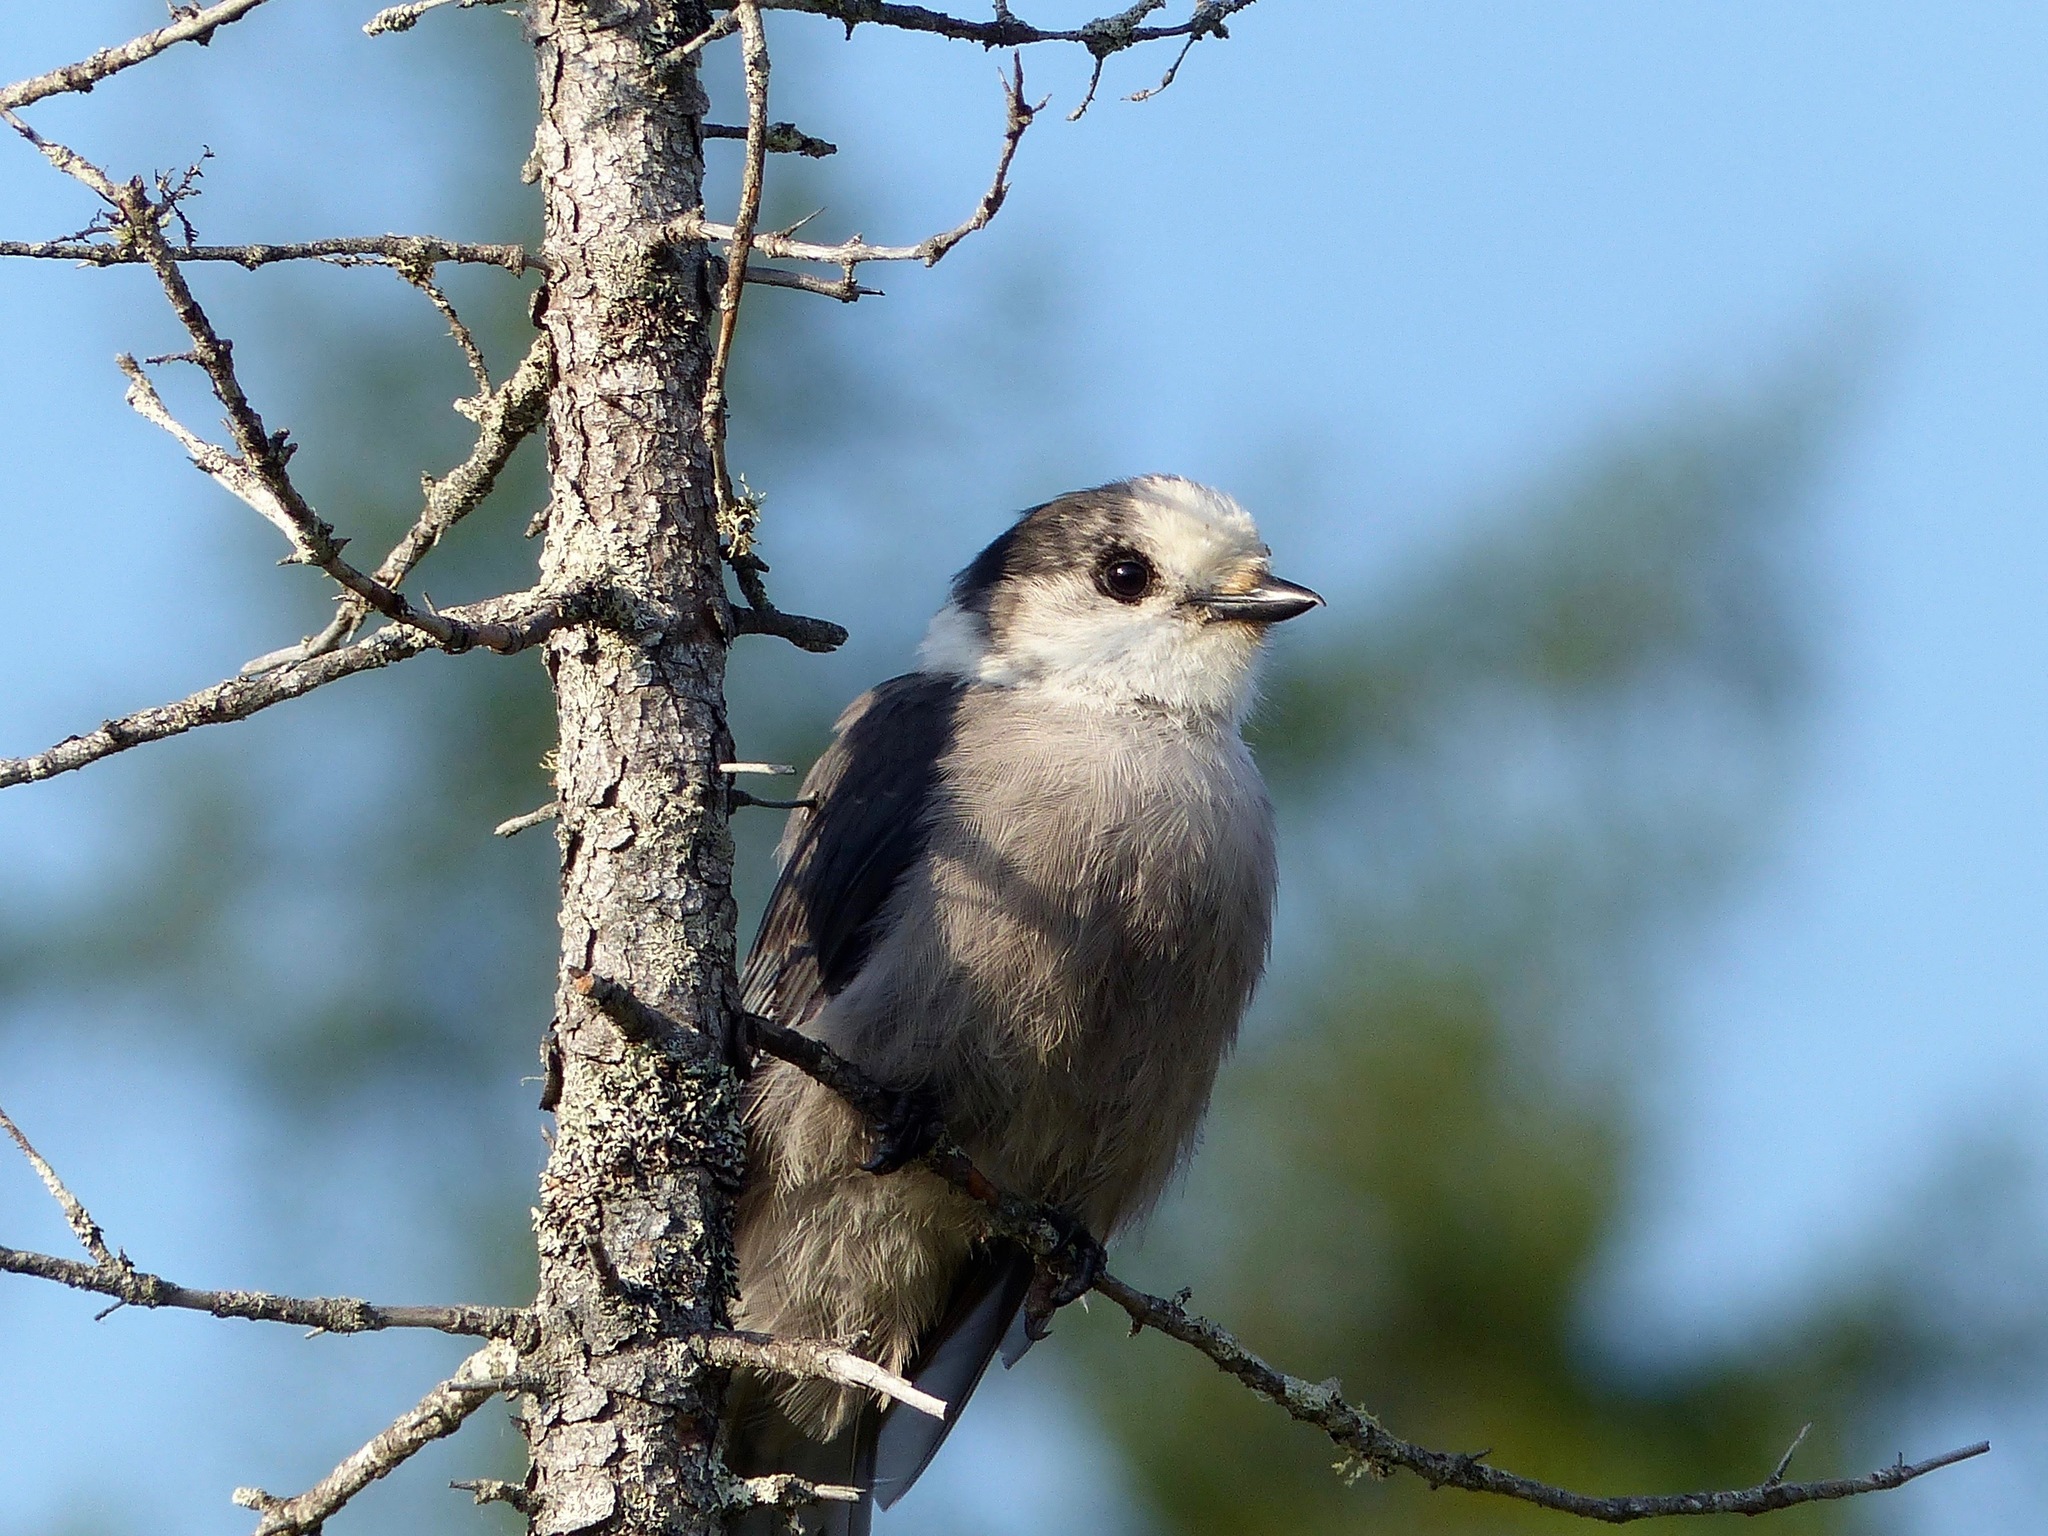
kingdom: Animalia
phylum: Chordata
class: Aves
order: Passeriformes
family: Corvidae
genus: Perisoreus
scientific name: Perisoreus canadensis
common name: Gray jay
